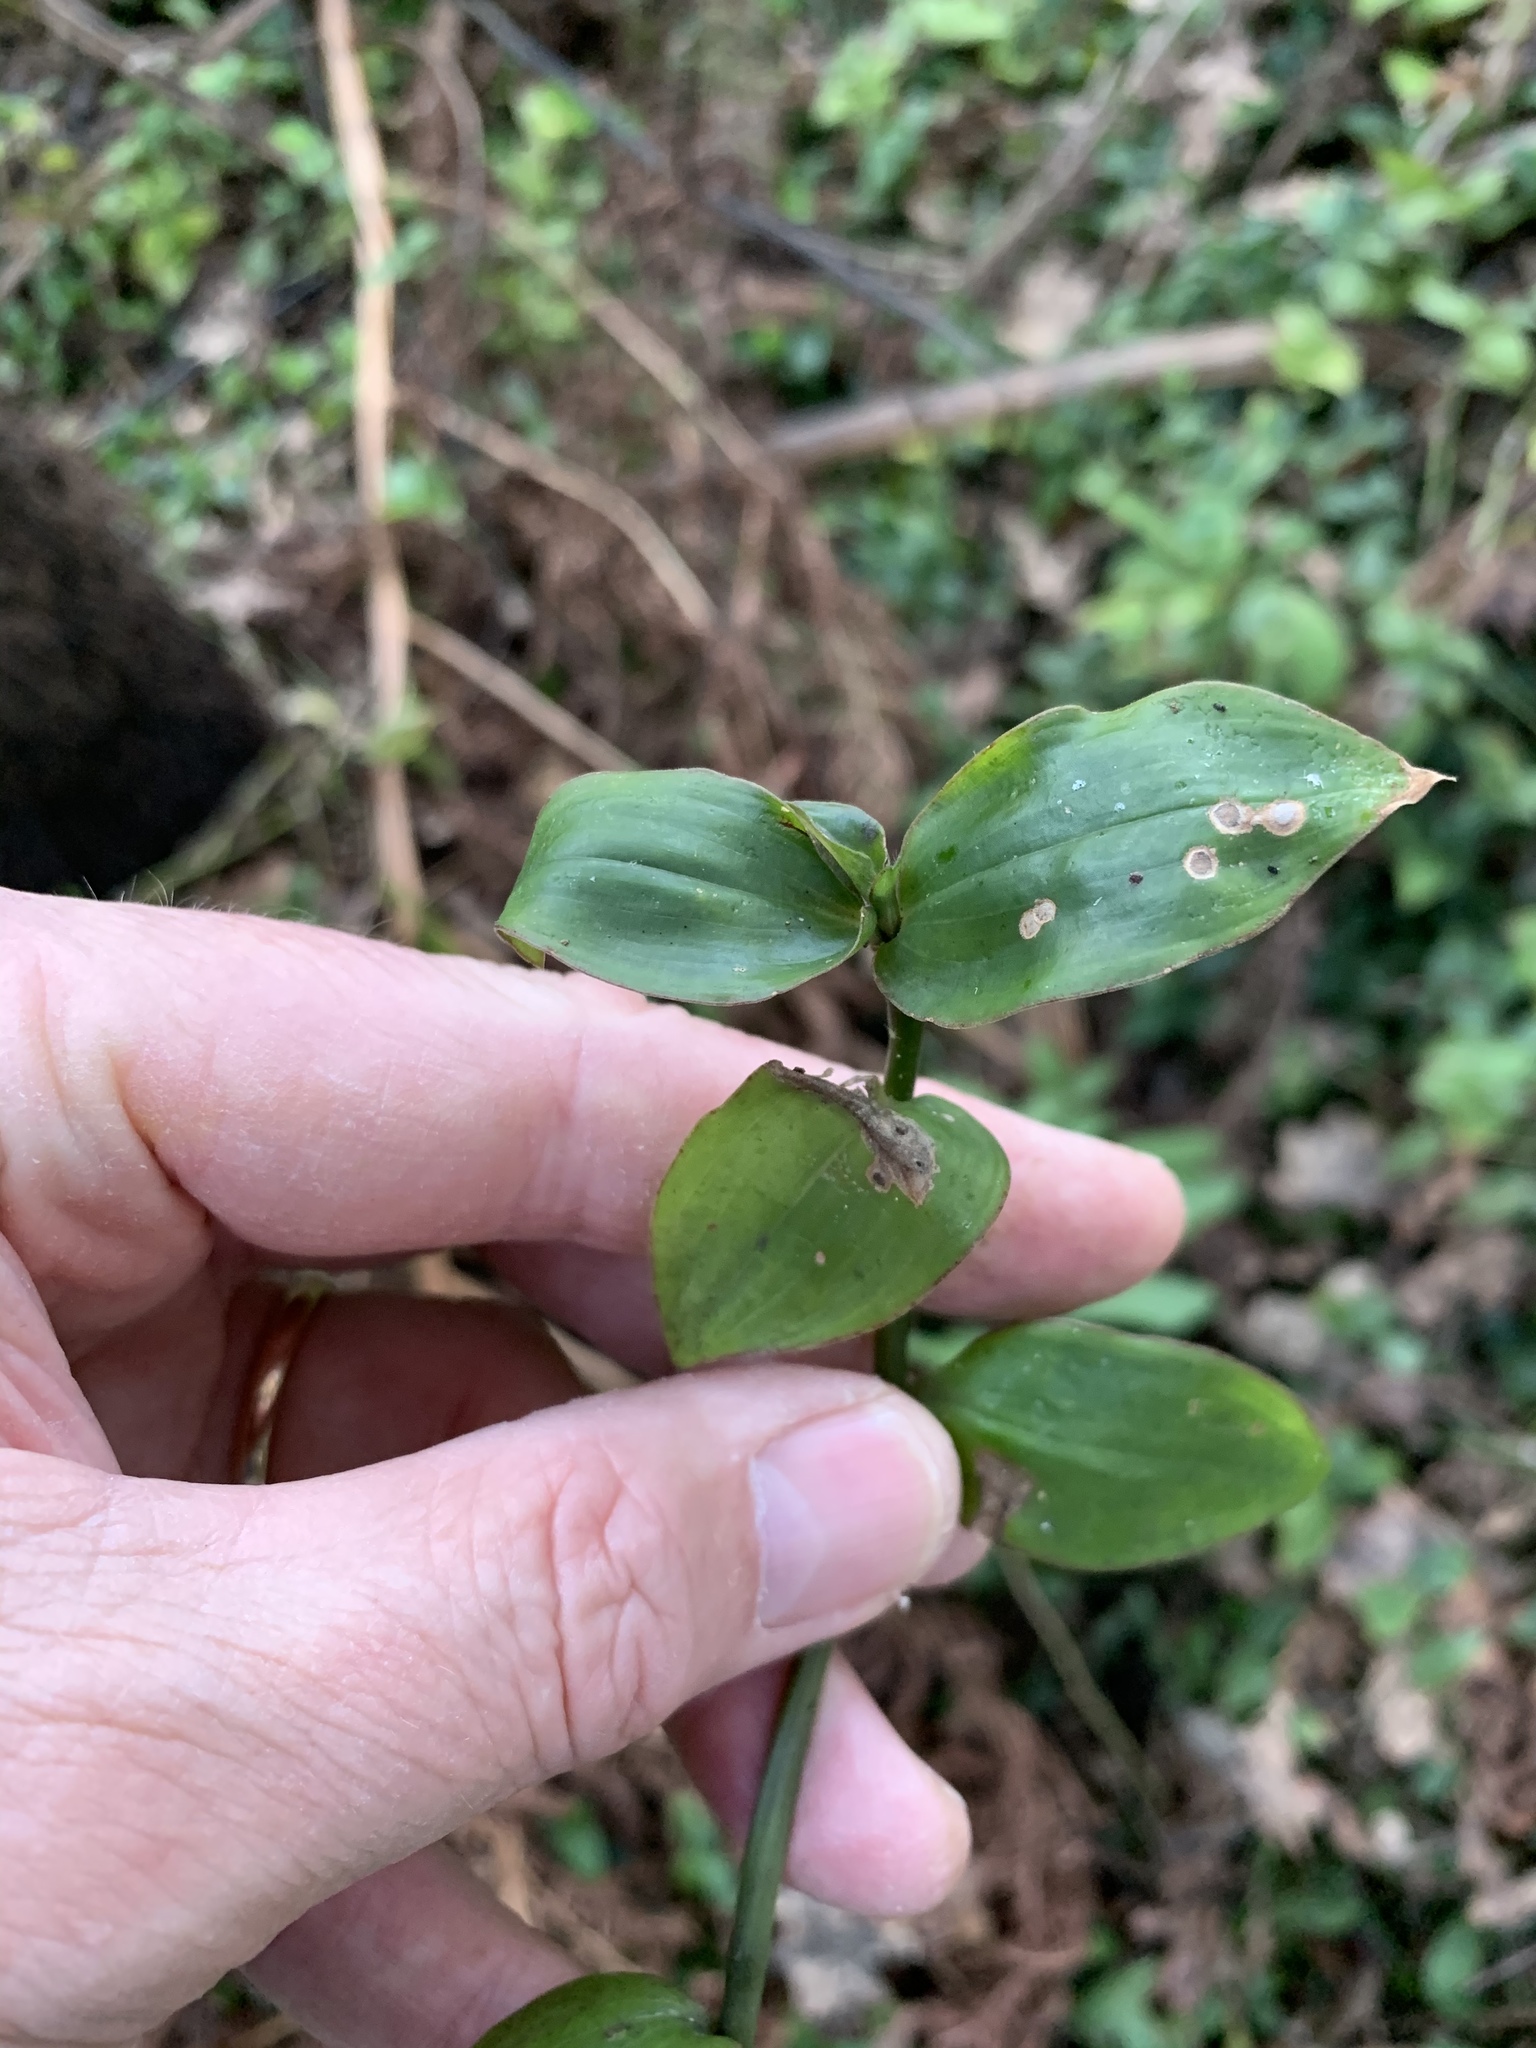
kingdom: Plantae
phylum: Tracheophyta
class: Liliopsida
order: Commelinales
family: Commelinaceae
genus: Tradescantia
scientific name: Tradescantia fluminensis
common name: Wandering-jew
